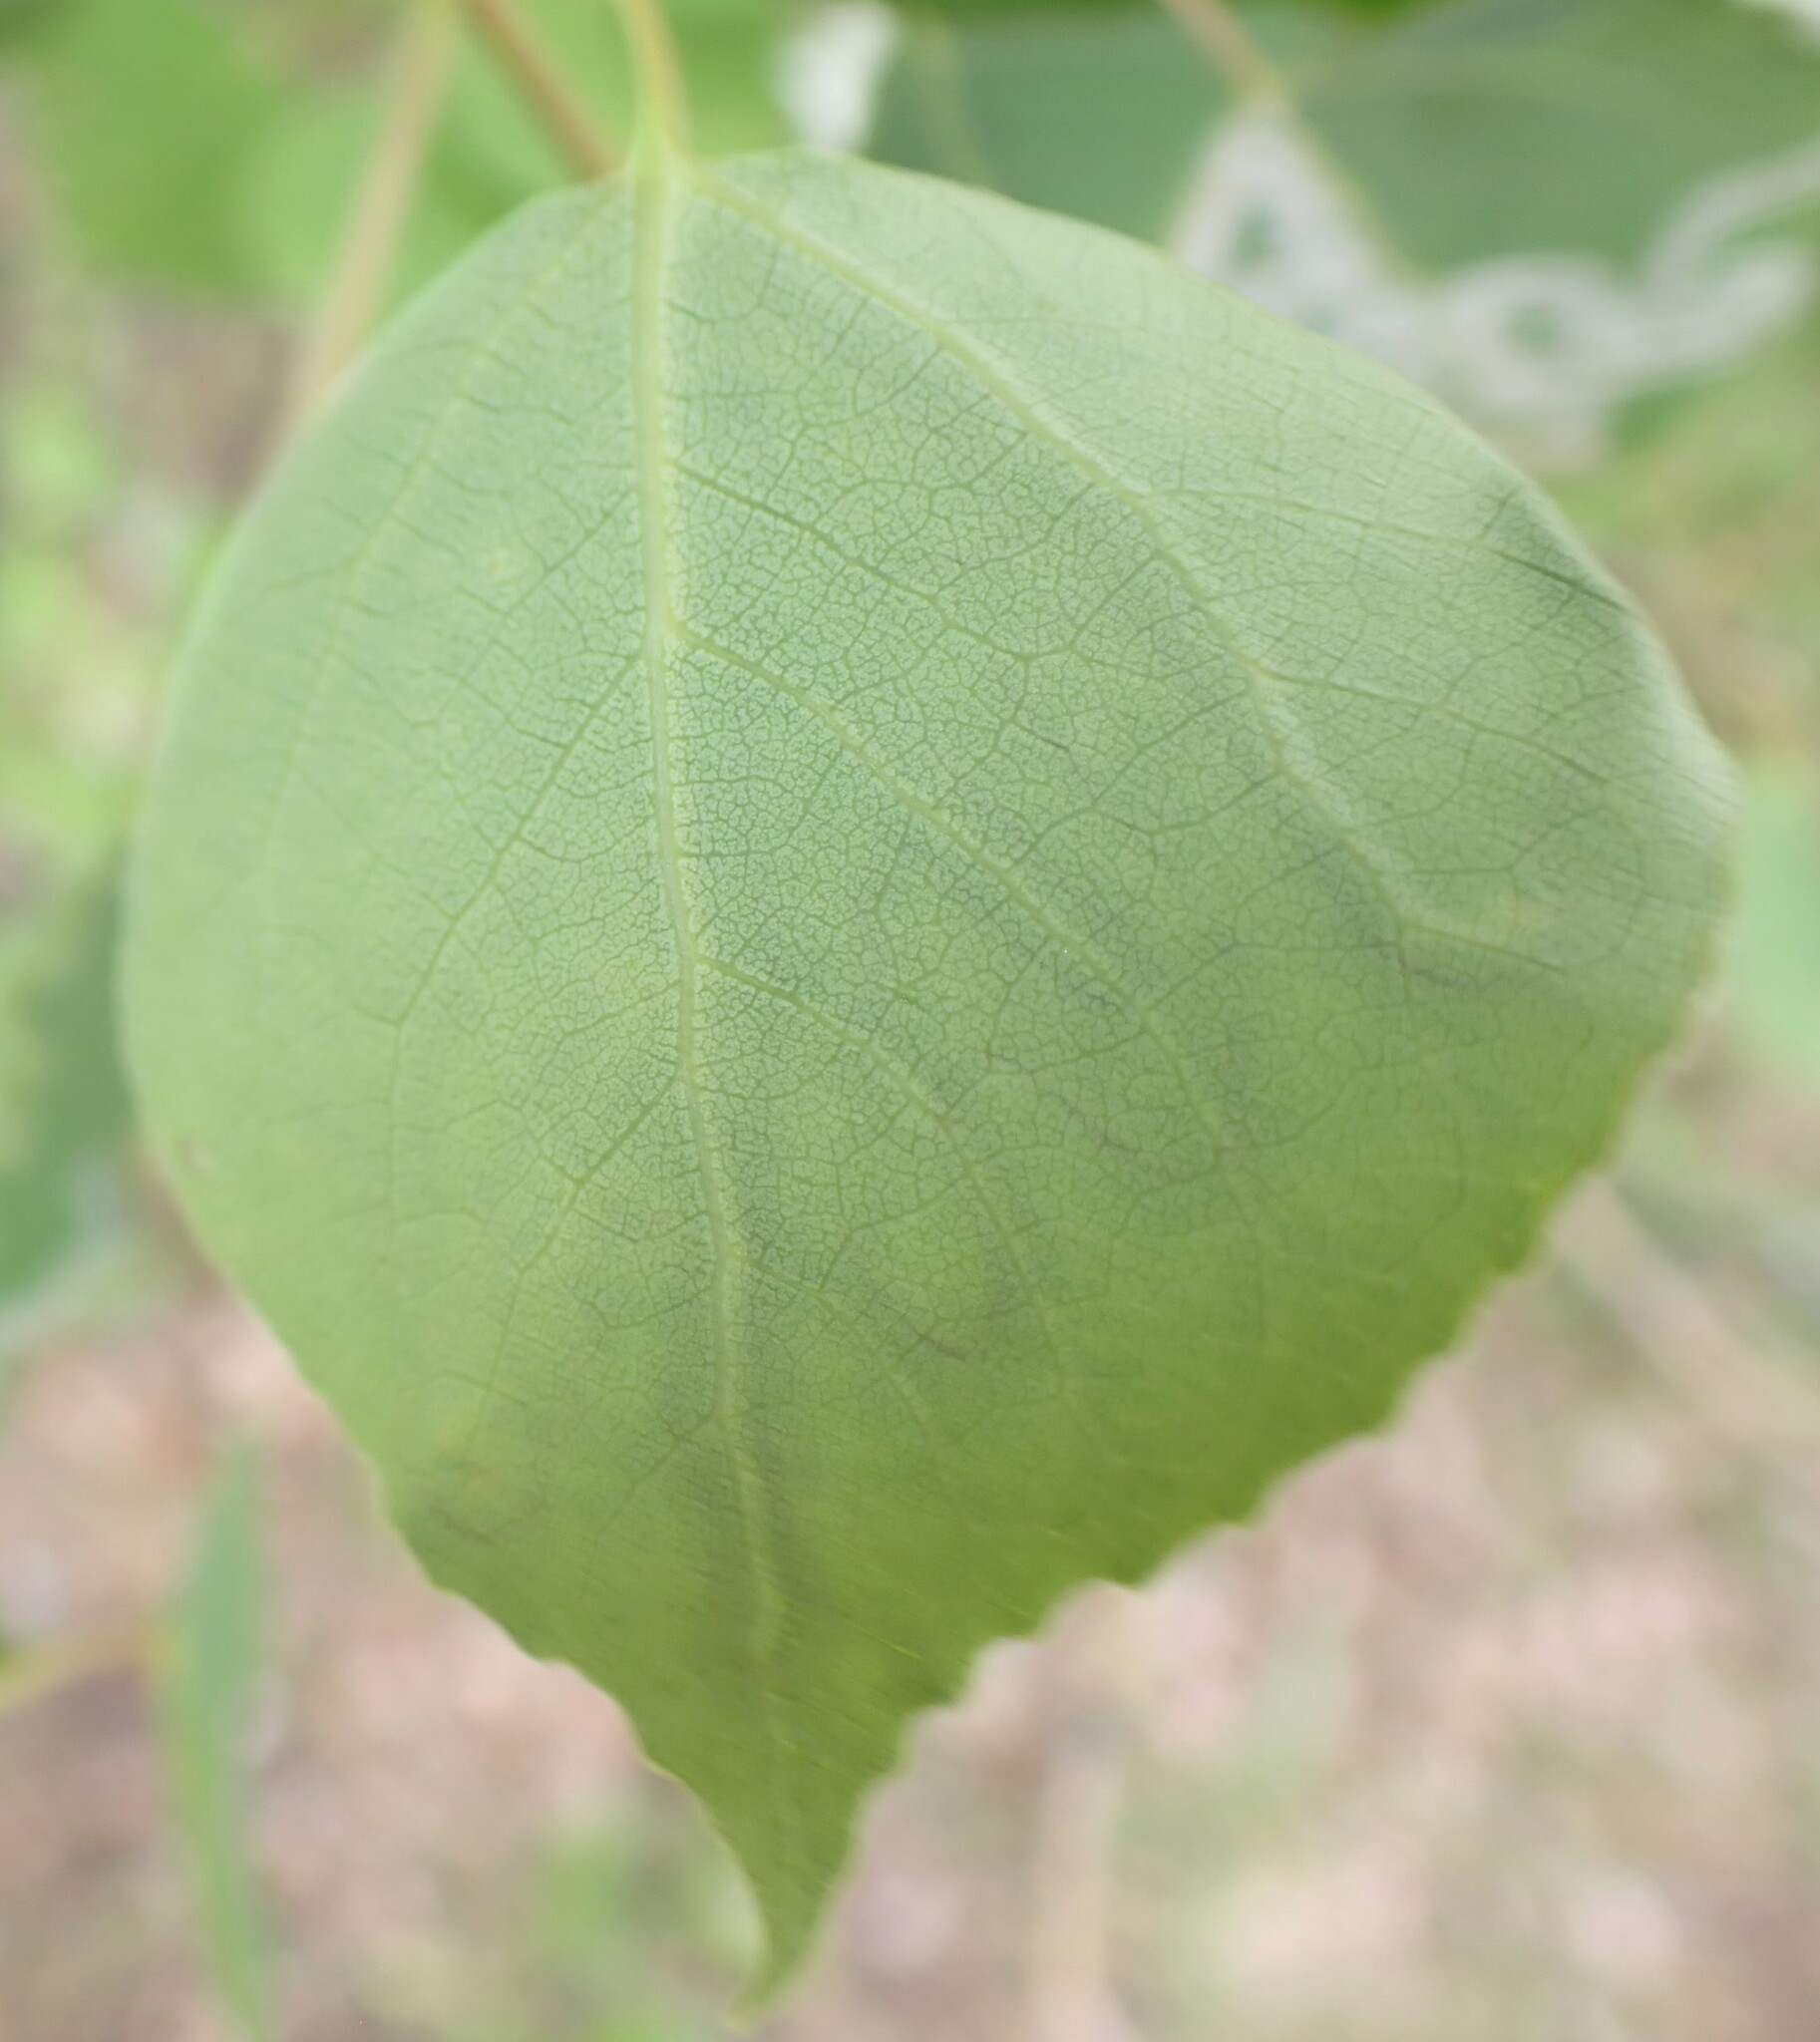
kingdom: Animalia
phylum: Arthropoda
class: Insecta
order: Lepidoptera
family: Gracillariidae
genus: Phyllocnistis
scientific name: Phyllocnistis populiella
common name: Aspen serpentine leafminer moth
